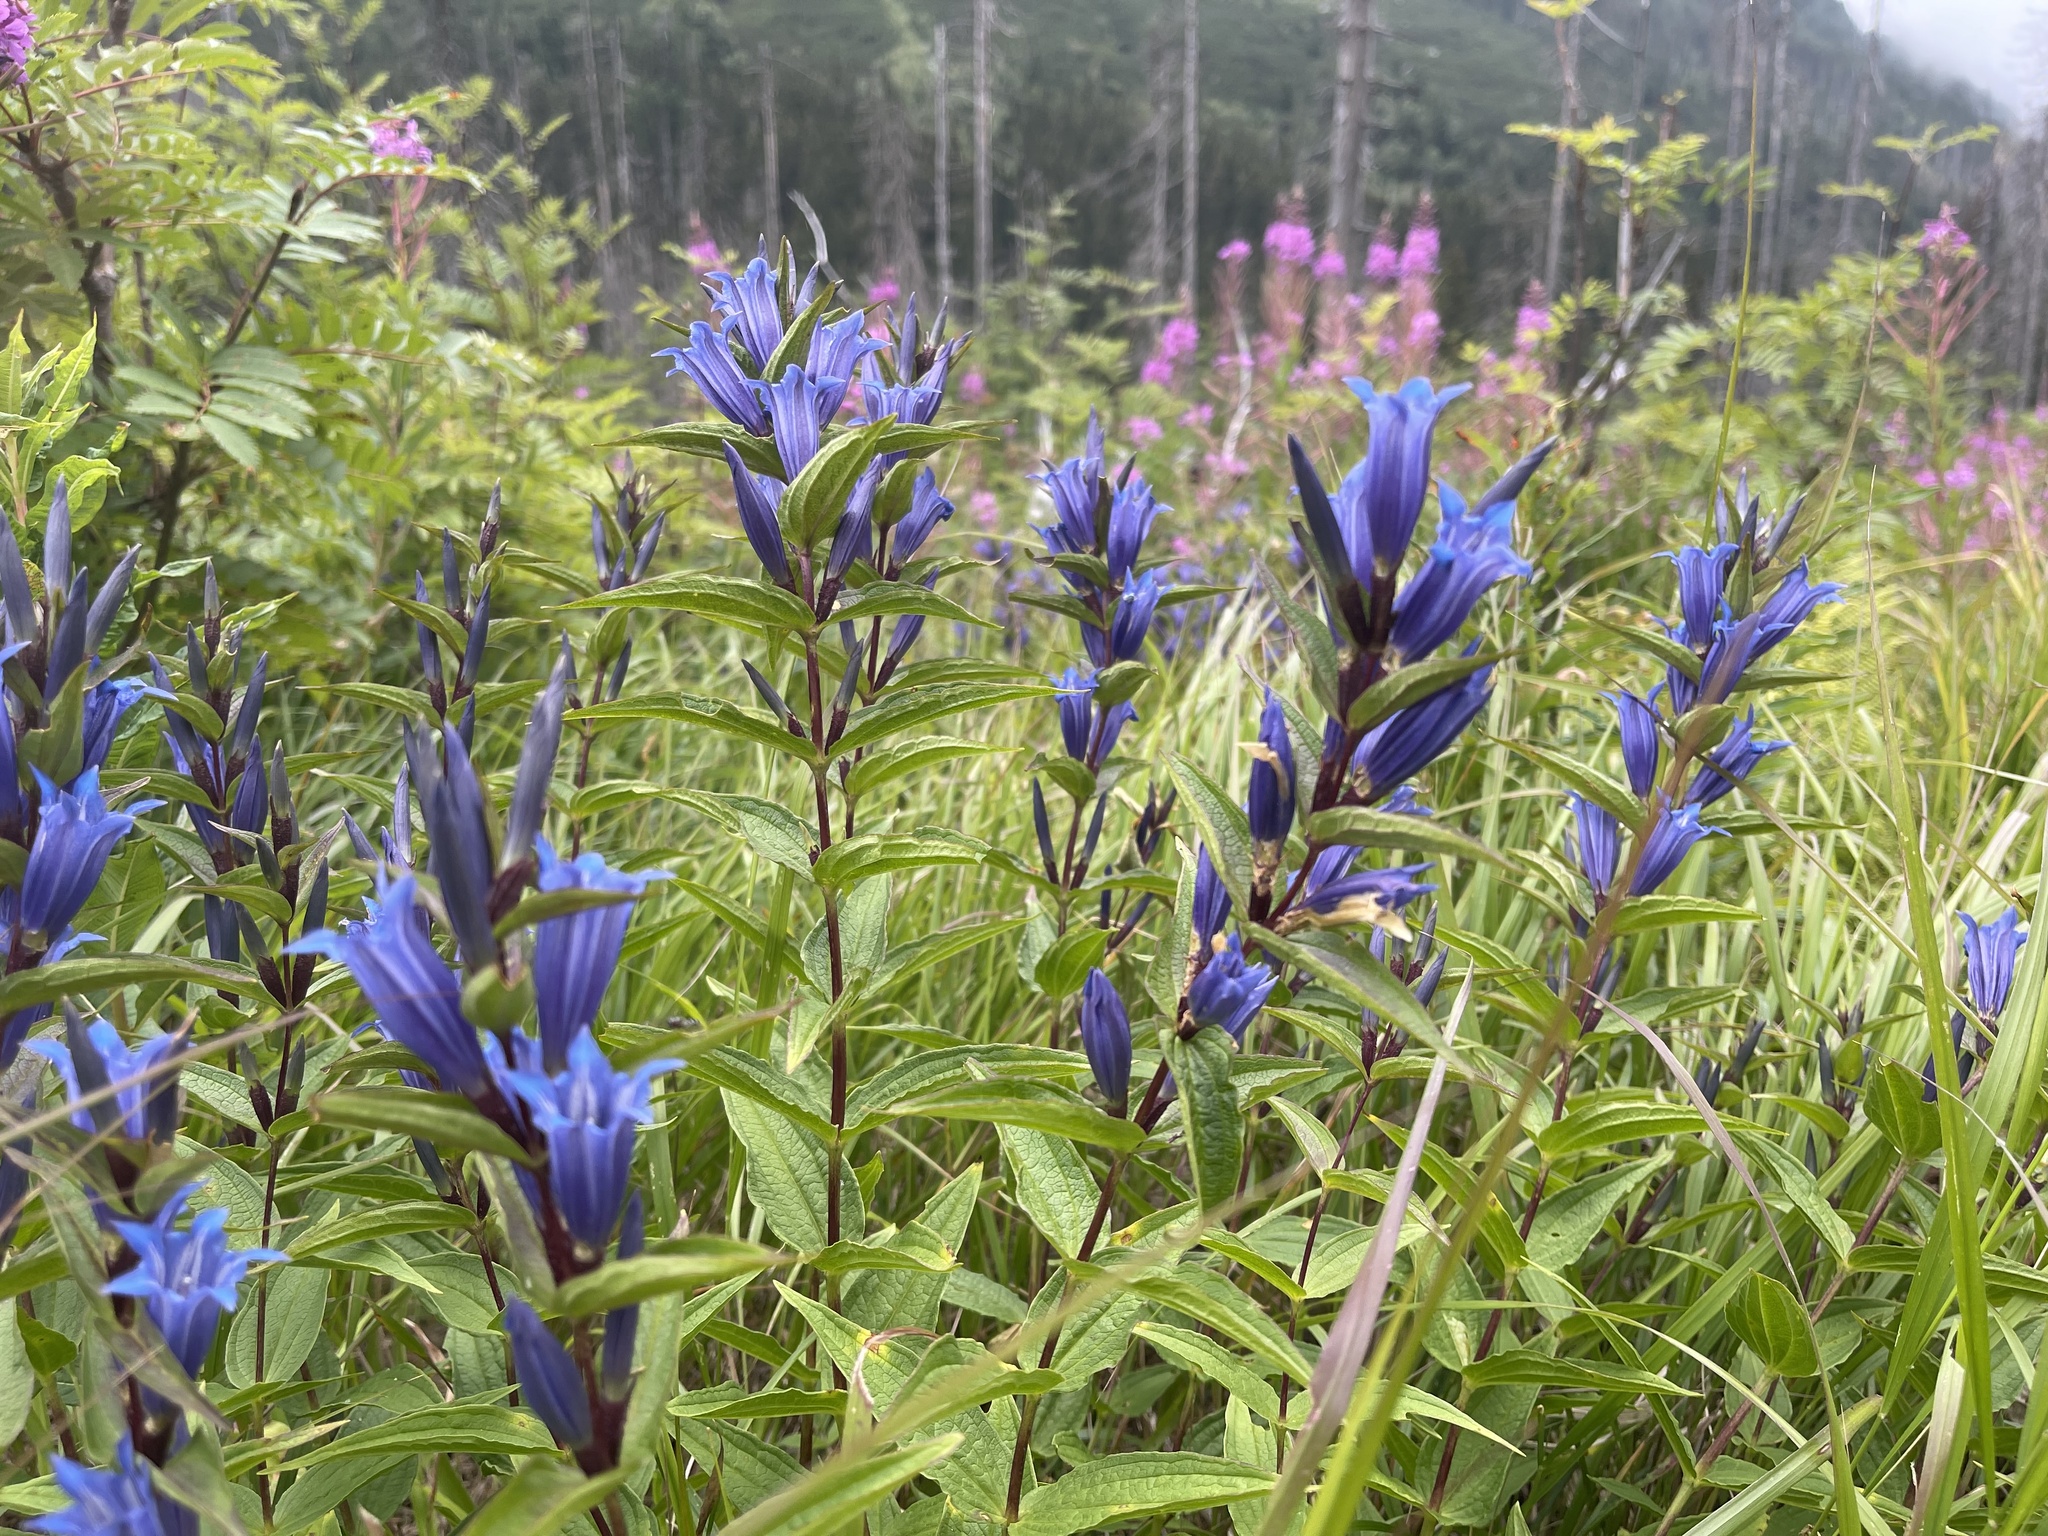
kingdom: Plantae
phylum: Tracheophyta
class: Magnoliopsida
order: Gentianales
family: Gentianaceae
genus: Gentiana
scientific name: Gentiana asclepiadea
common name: Willow gentian
